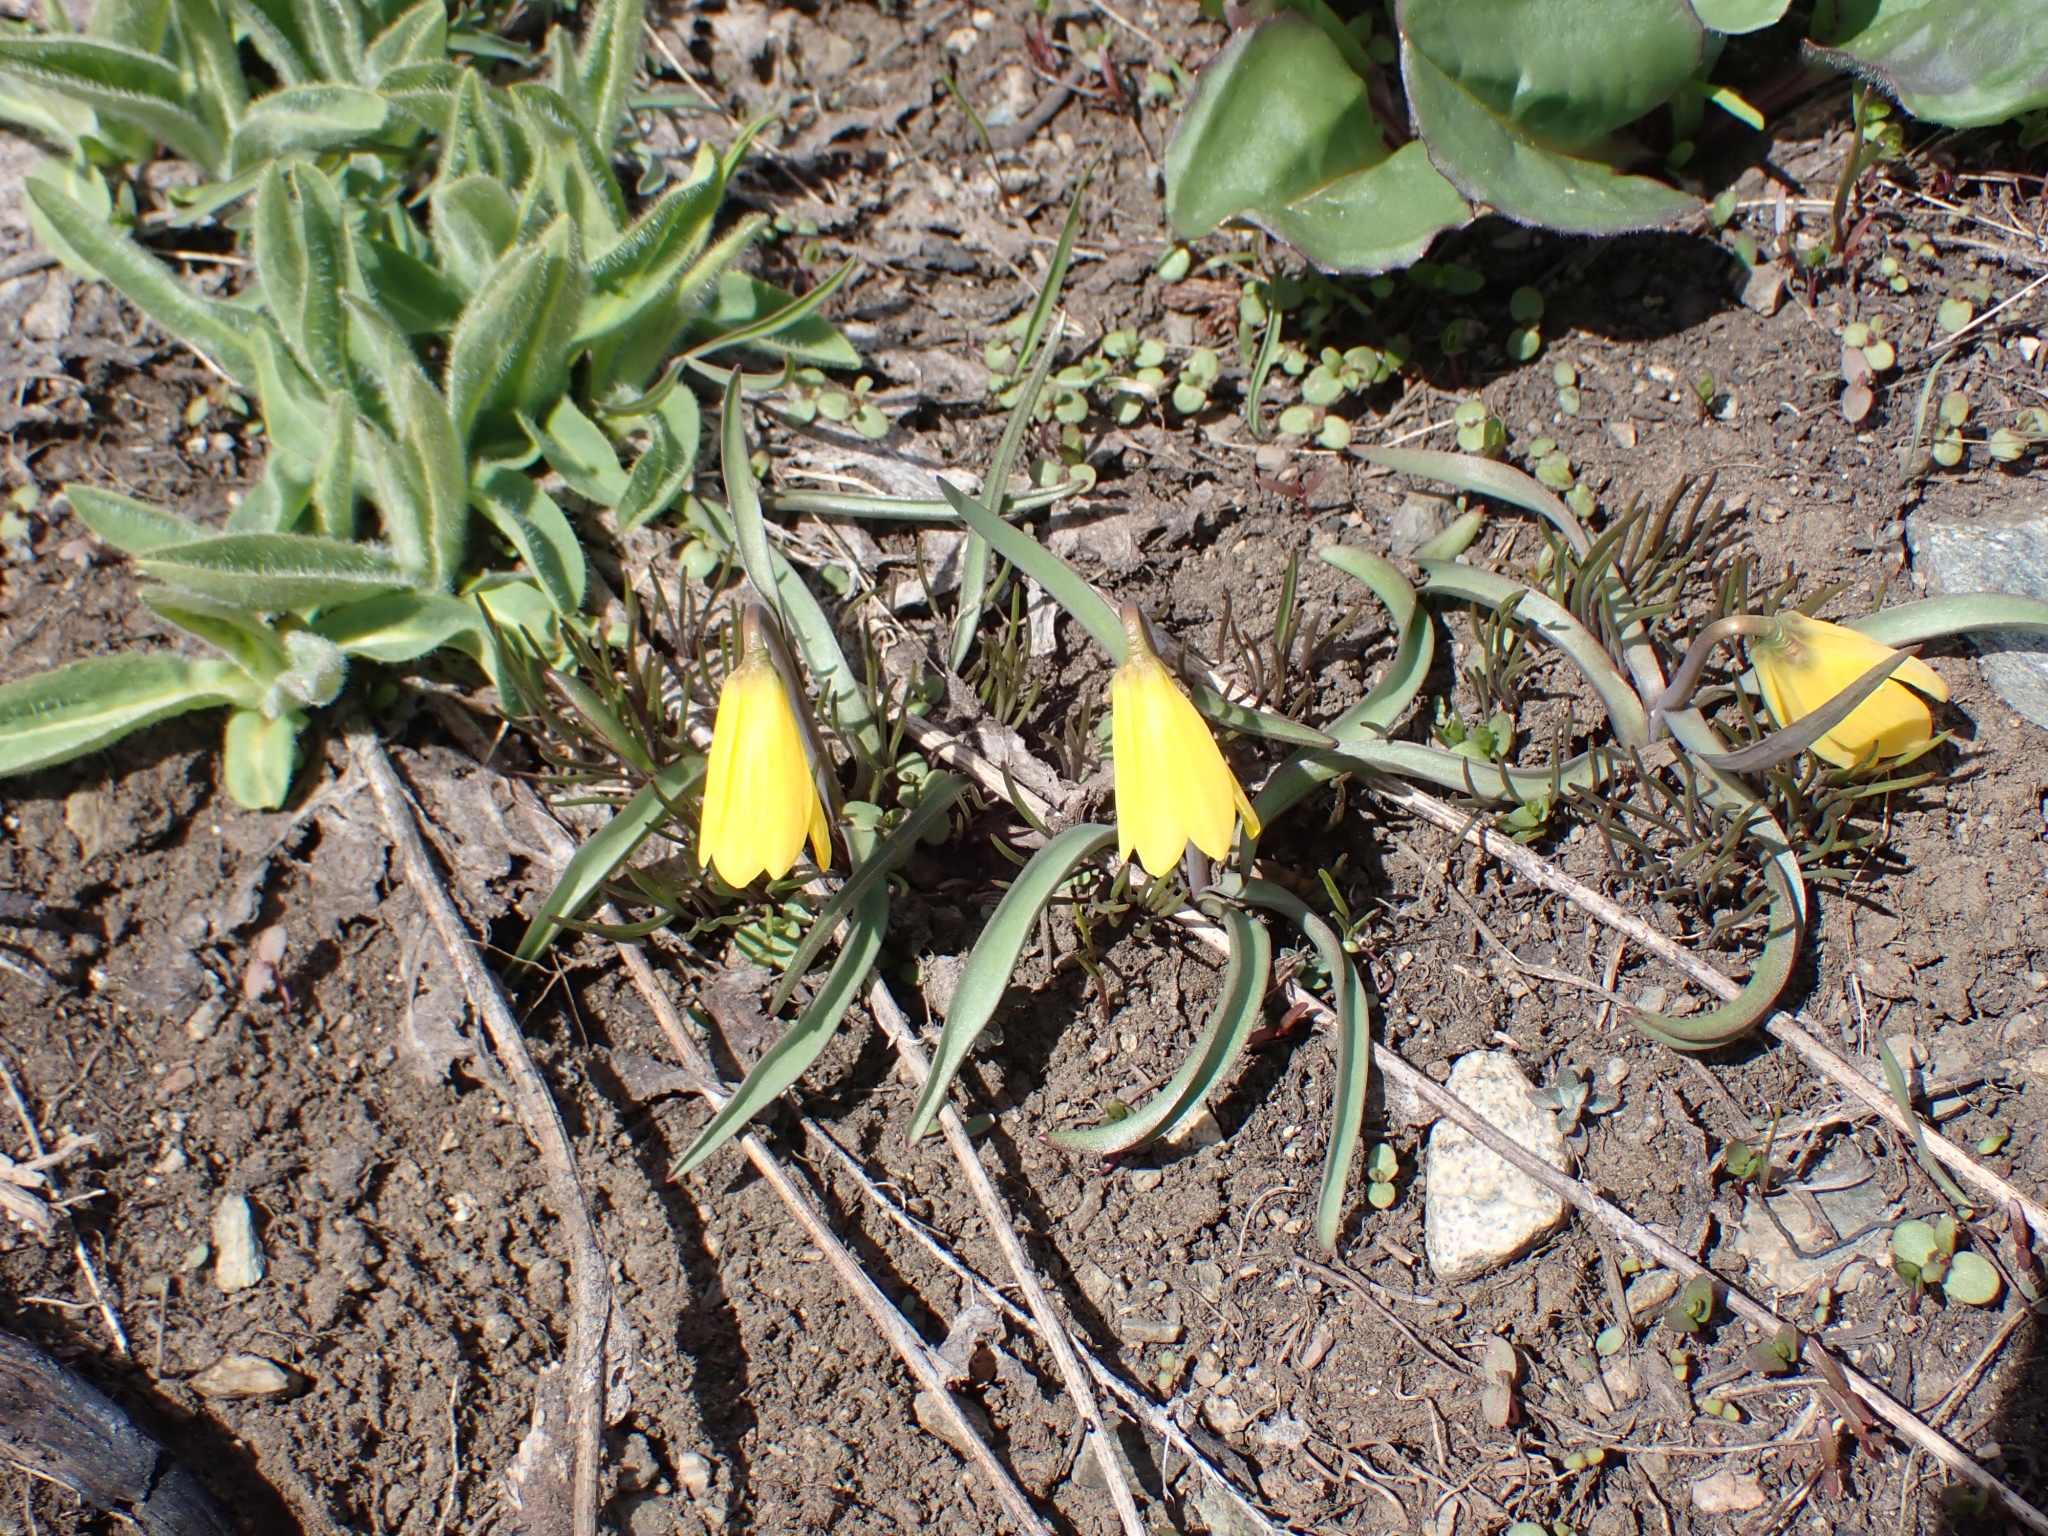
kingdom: Plantae
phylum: Tracheophyta
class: Liliopsida
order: Liliales
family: Liliaceae
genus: Fritillaria
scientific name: Fritillaria pudica
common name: Yellow fritillary
